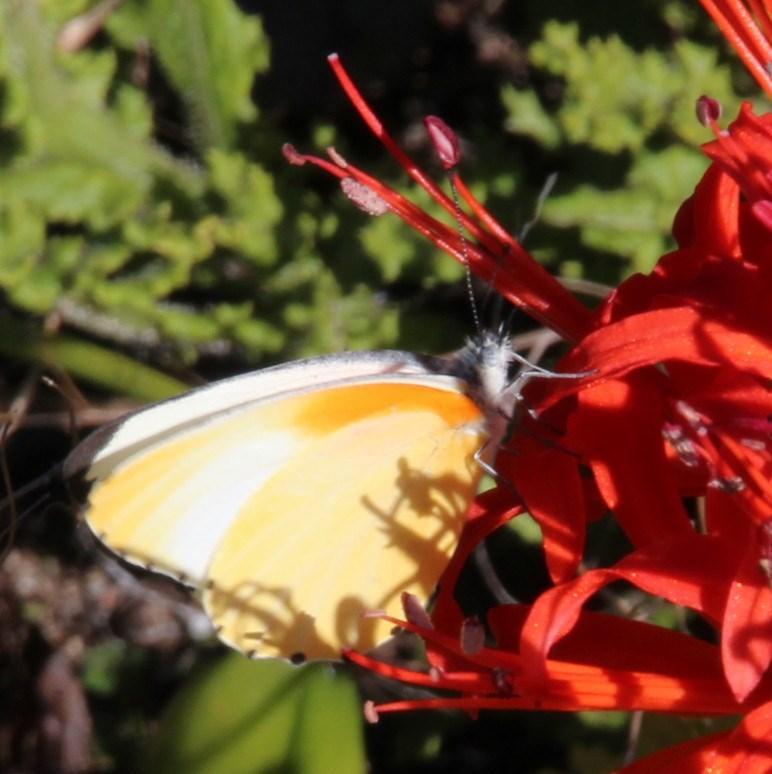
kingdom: Animalia
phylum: Arthropoda
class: Insecta
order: Lepidoptera
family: Pieridae
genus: Mylothris
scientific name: Mylothris agathina
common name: Eastern dotted border
